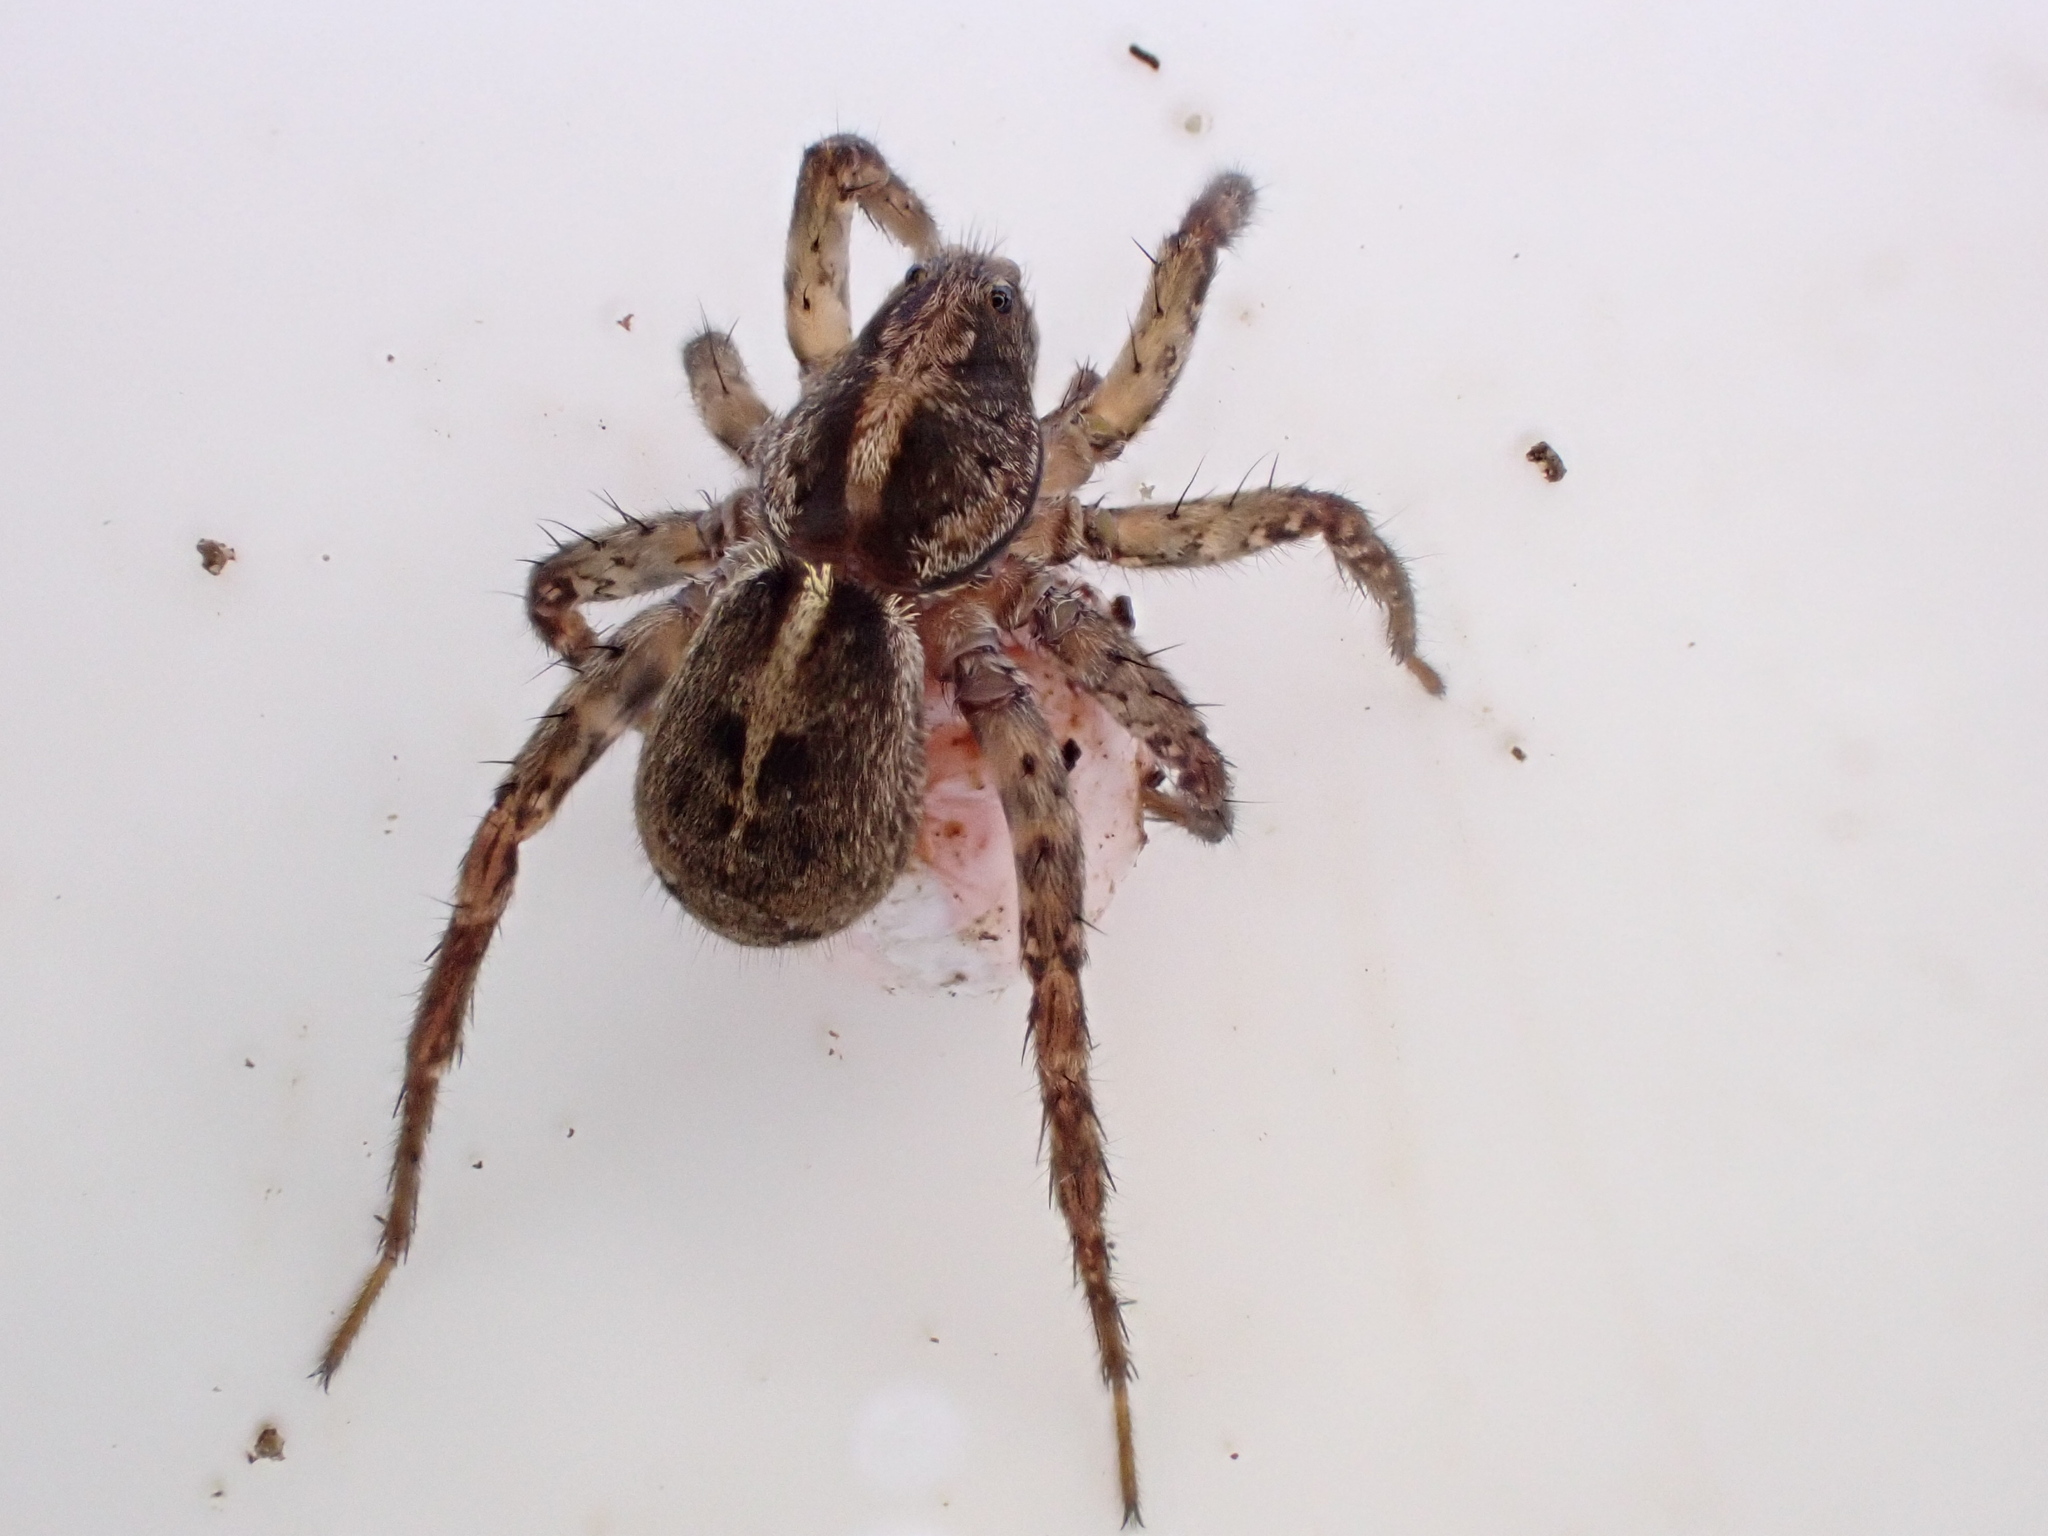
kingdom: Animalia
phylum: Arthropoda
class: Arachnida
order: Araneae
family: Lycosidae
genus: Anoteropsis
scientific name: Anoteropsis hilaris
